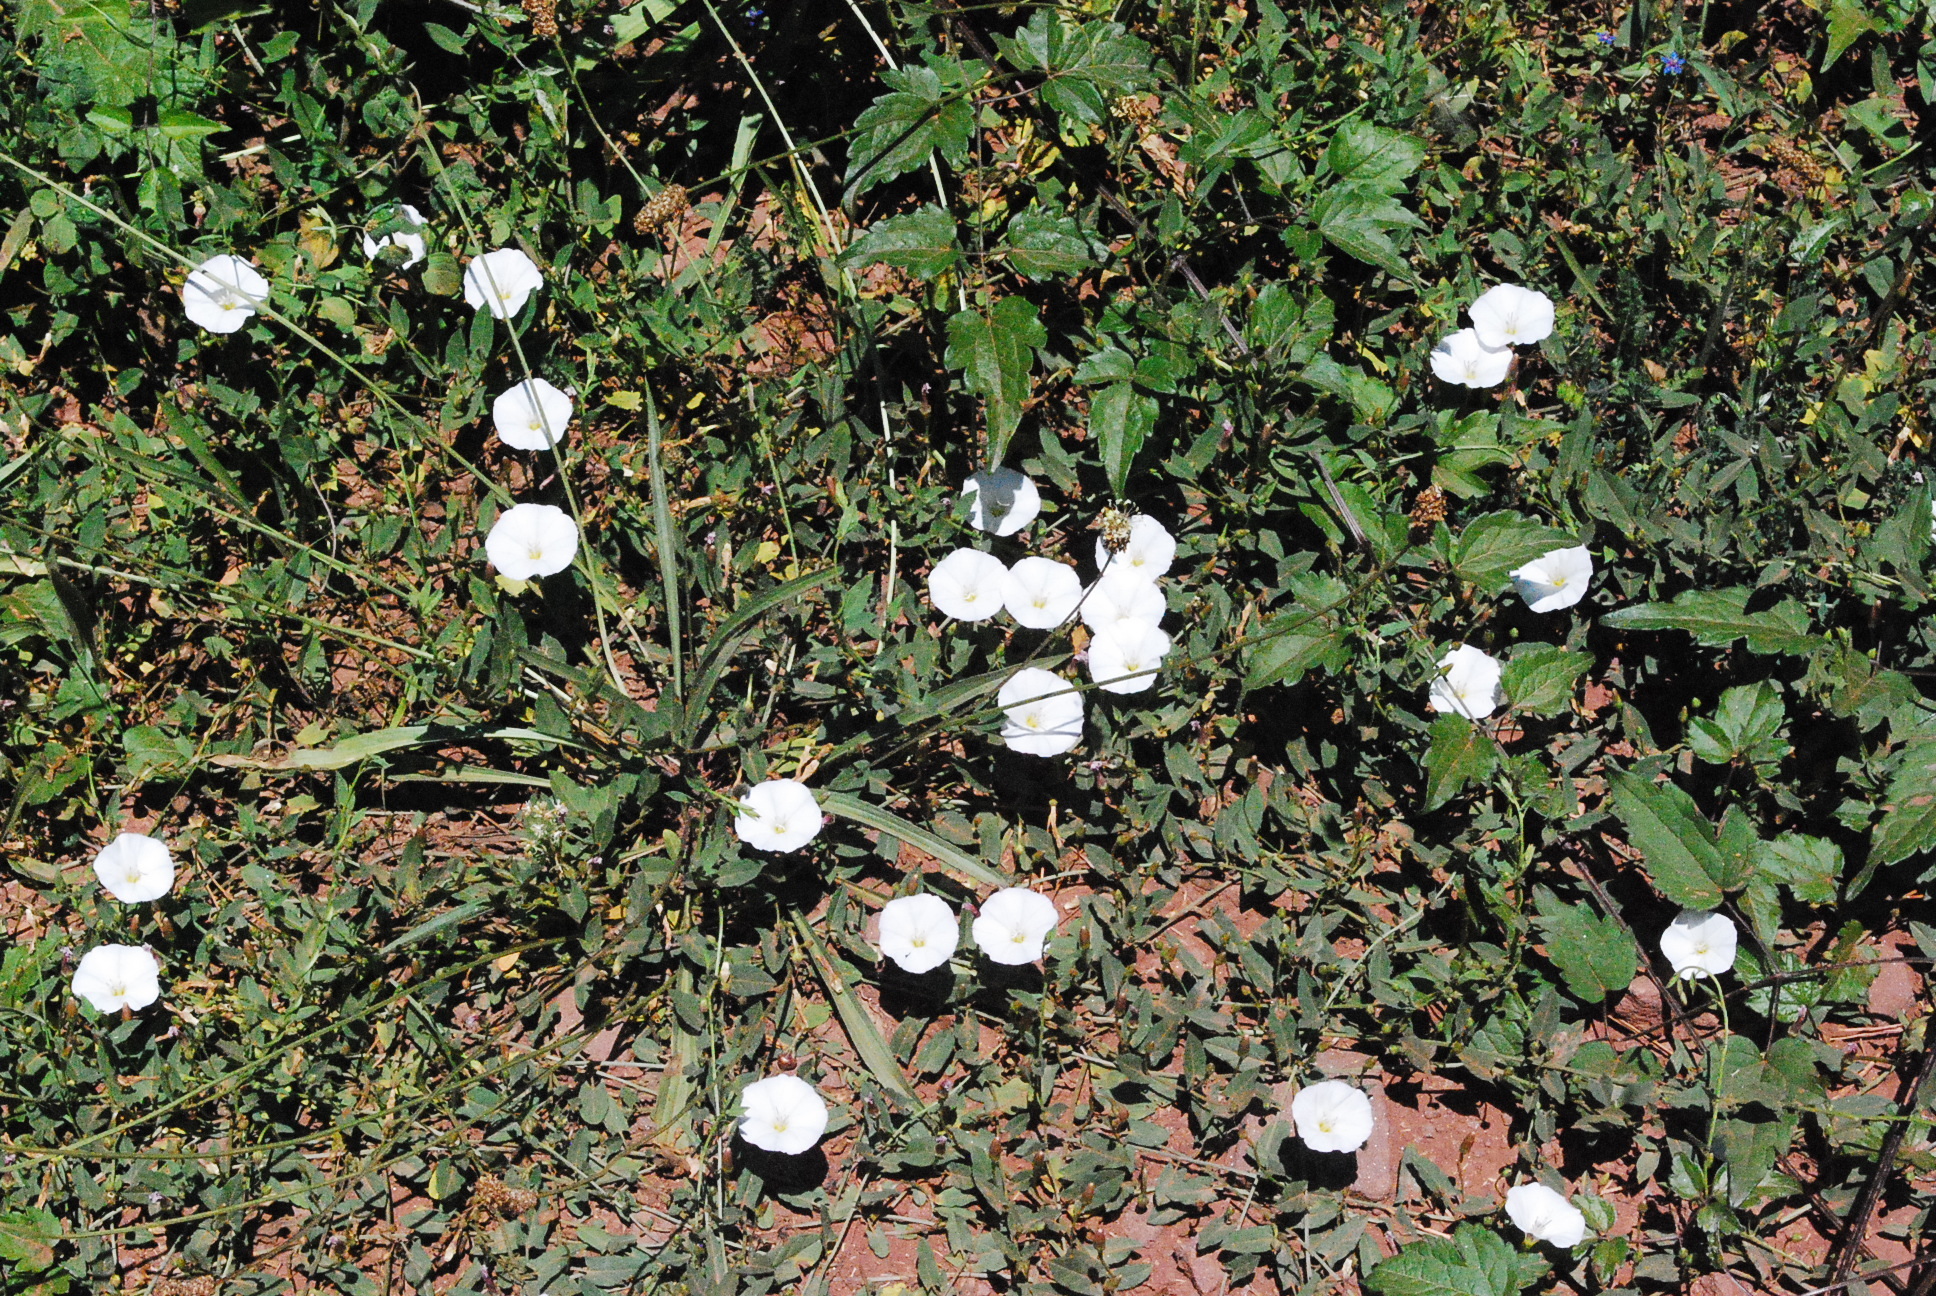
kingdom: Plantae
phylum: Tracheophyta
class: Magnoliopsida
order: Solanales
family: Convolvulaceae
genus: Convolvulus
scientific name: Convolvulus arvensis
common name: Field bindweed
